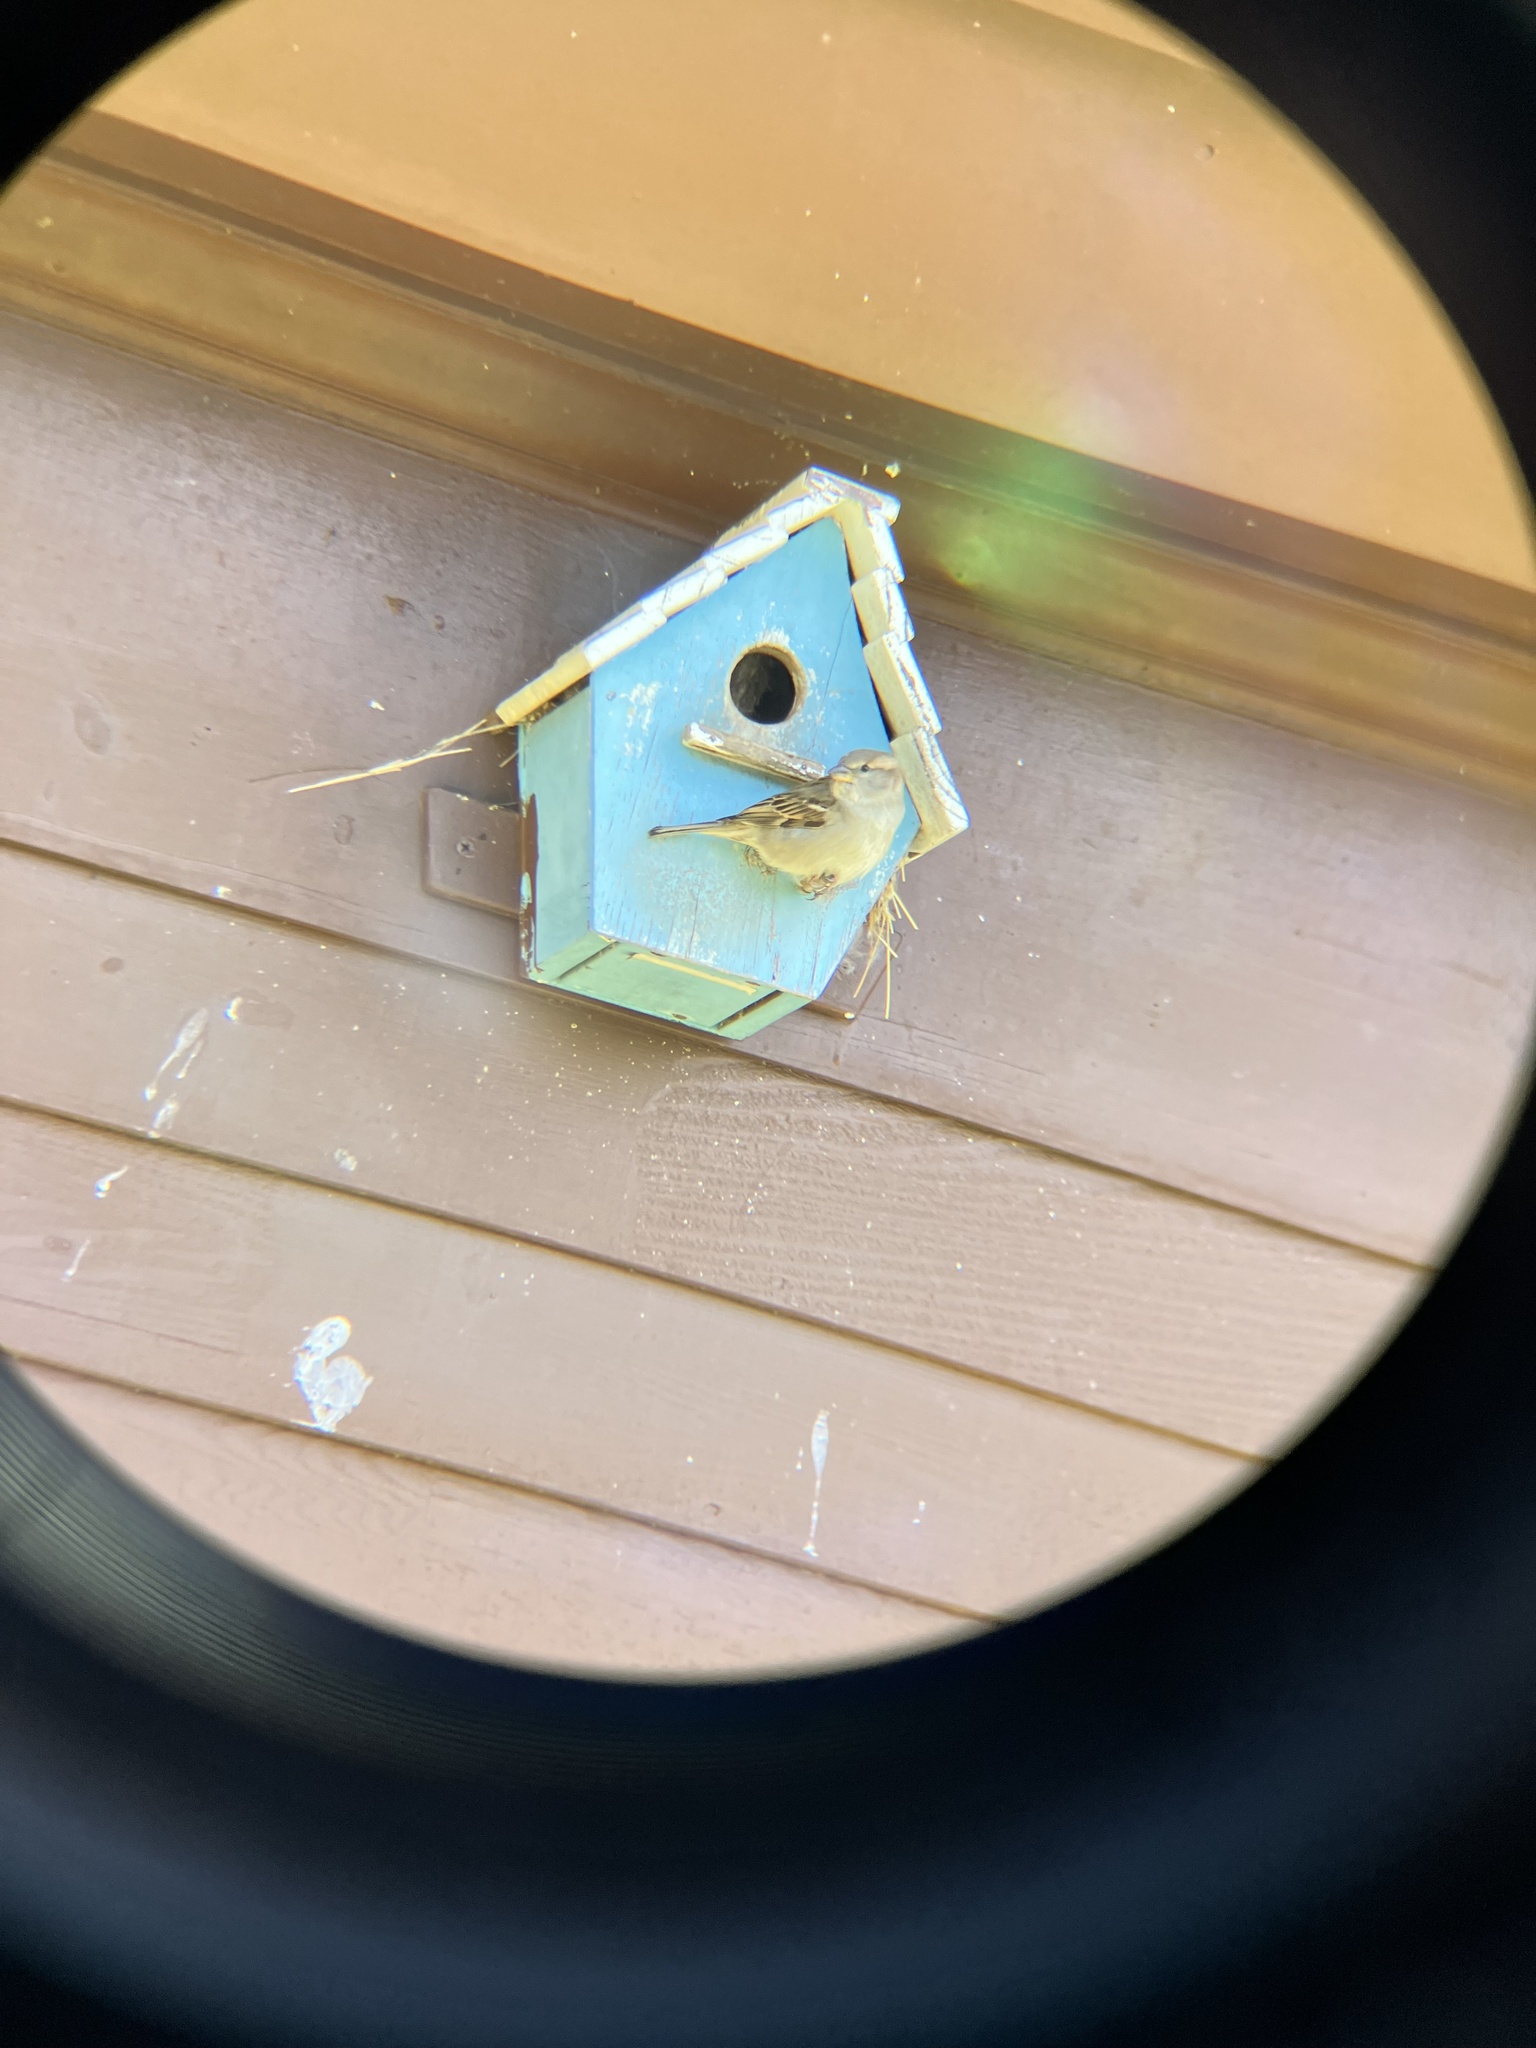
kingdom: Animalia
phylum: Chordata
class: Aves
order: Passeriformes
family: Passeridae
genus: Passer
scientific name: Passer domesticus
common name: House sparrow
